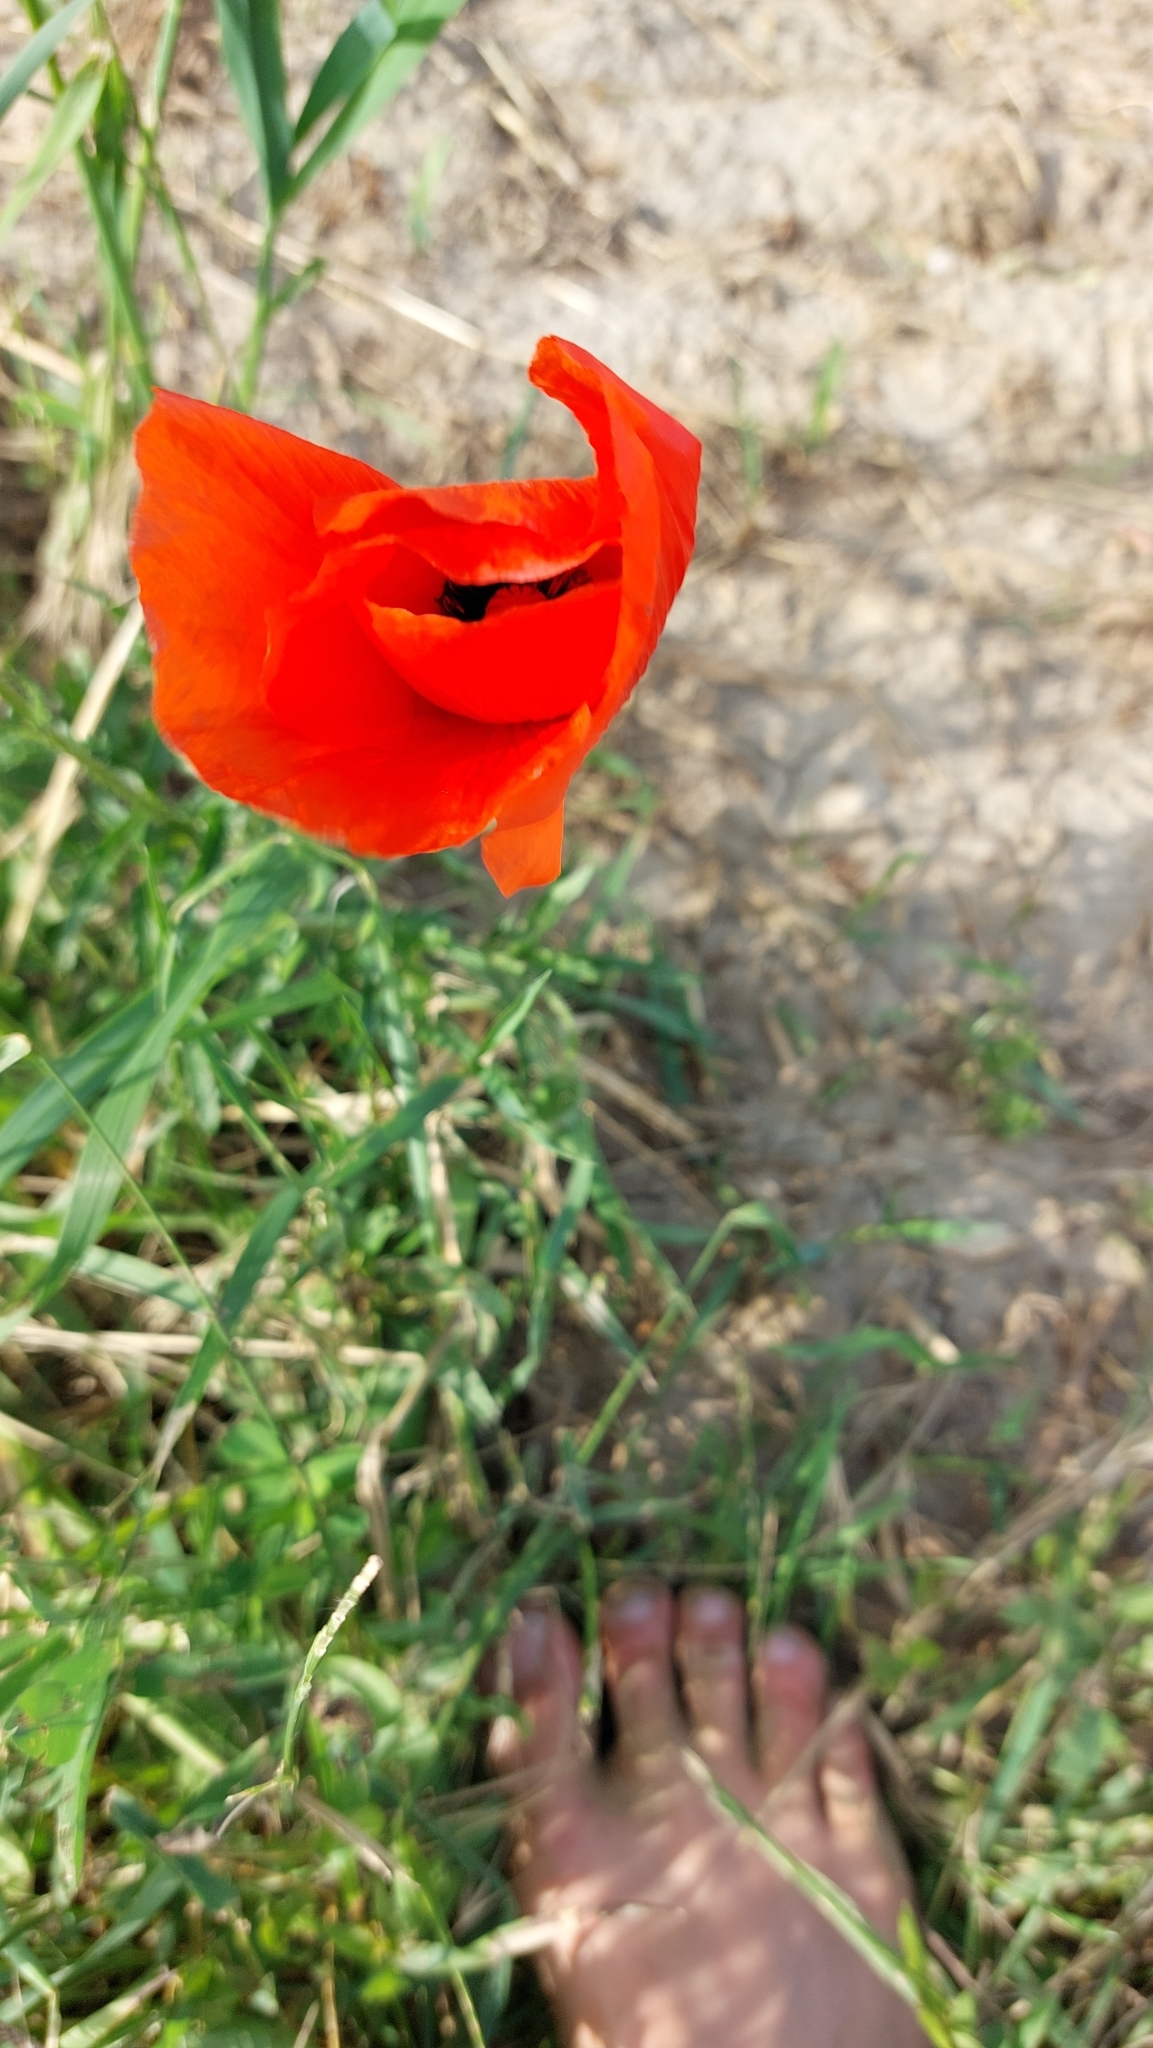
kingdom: Plantae
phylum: Tracheophyta
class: Magnoliopsida
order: Ranunculales
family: Papaveraceae
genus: Papaver
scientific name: Papaver rhoeas
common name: Corn poppy
